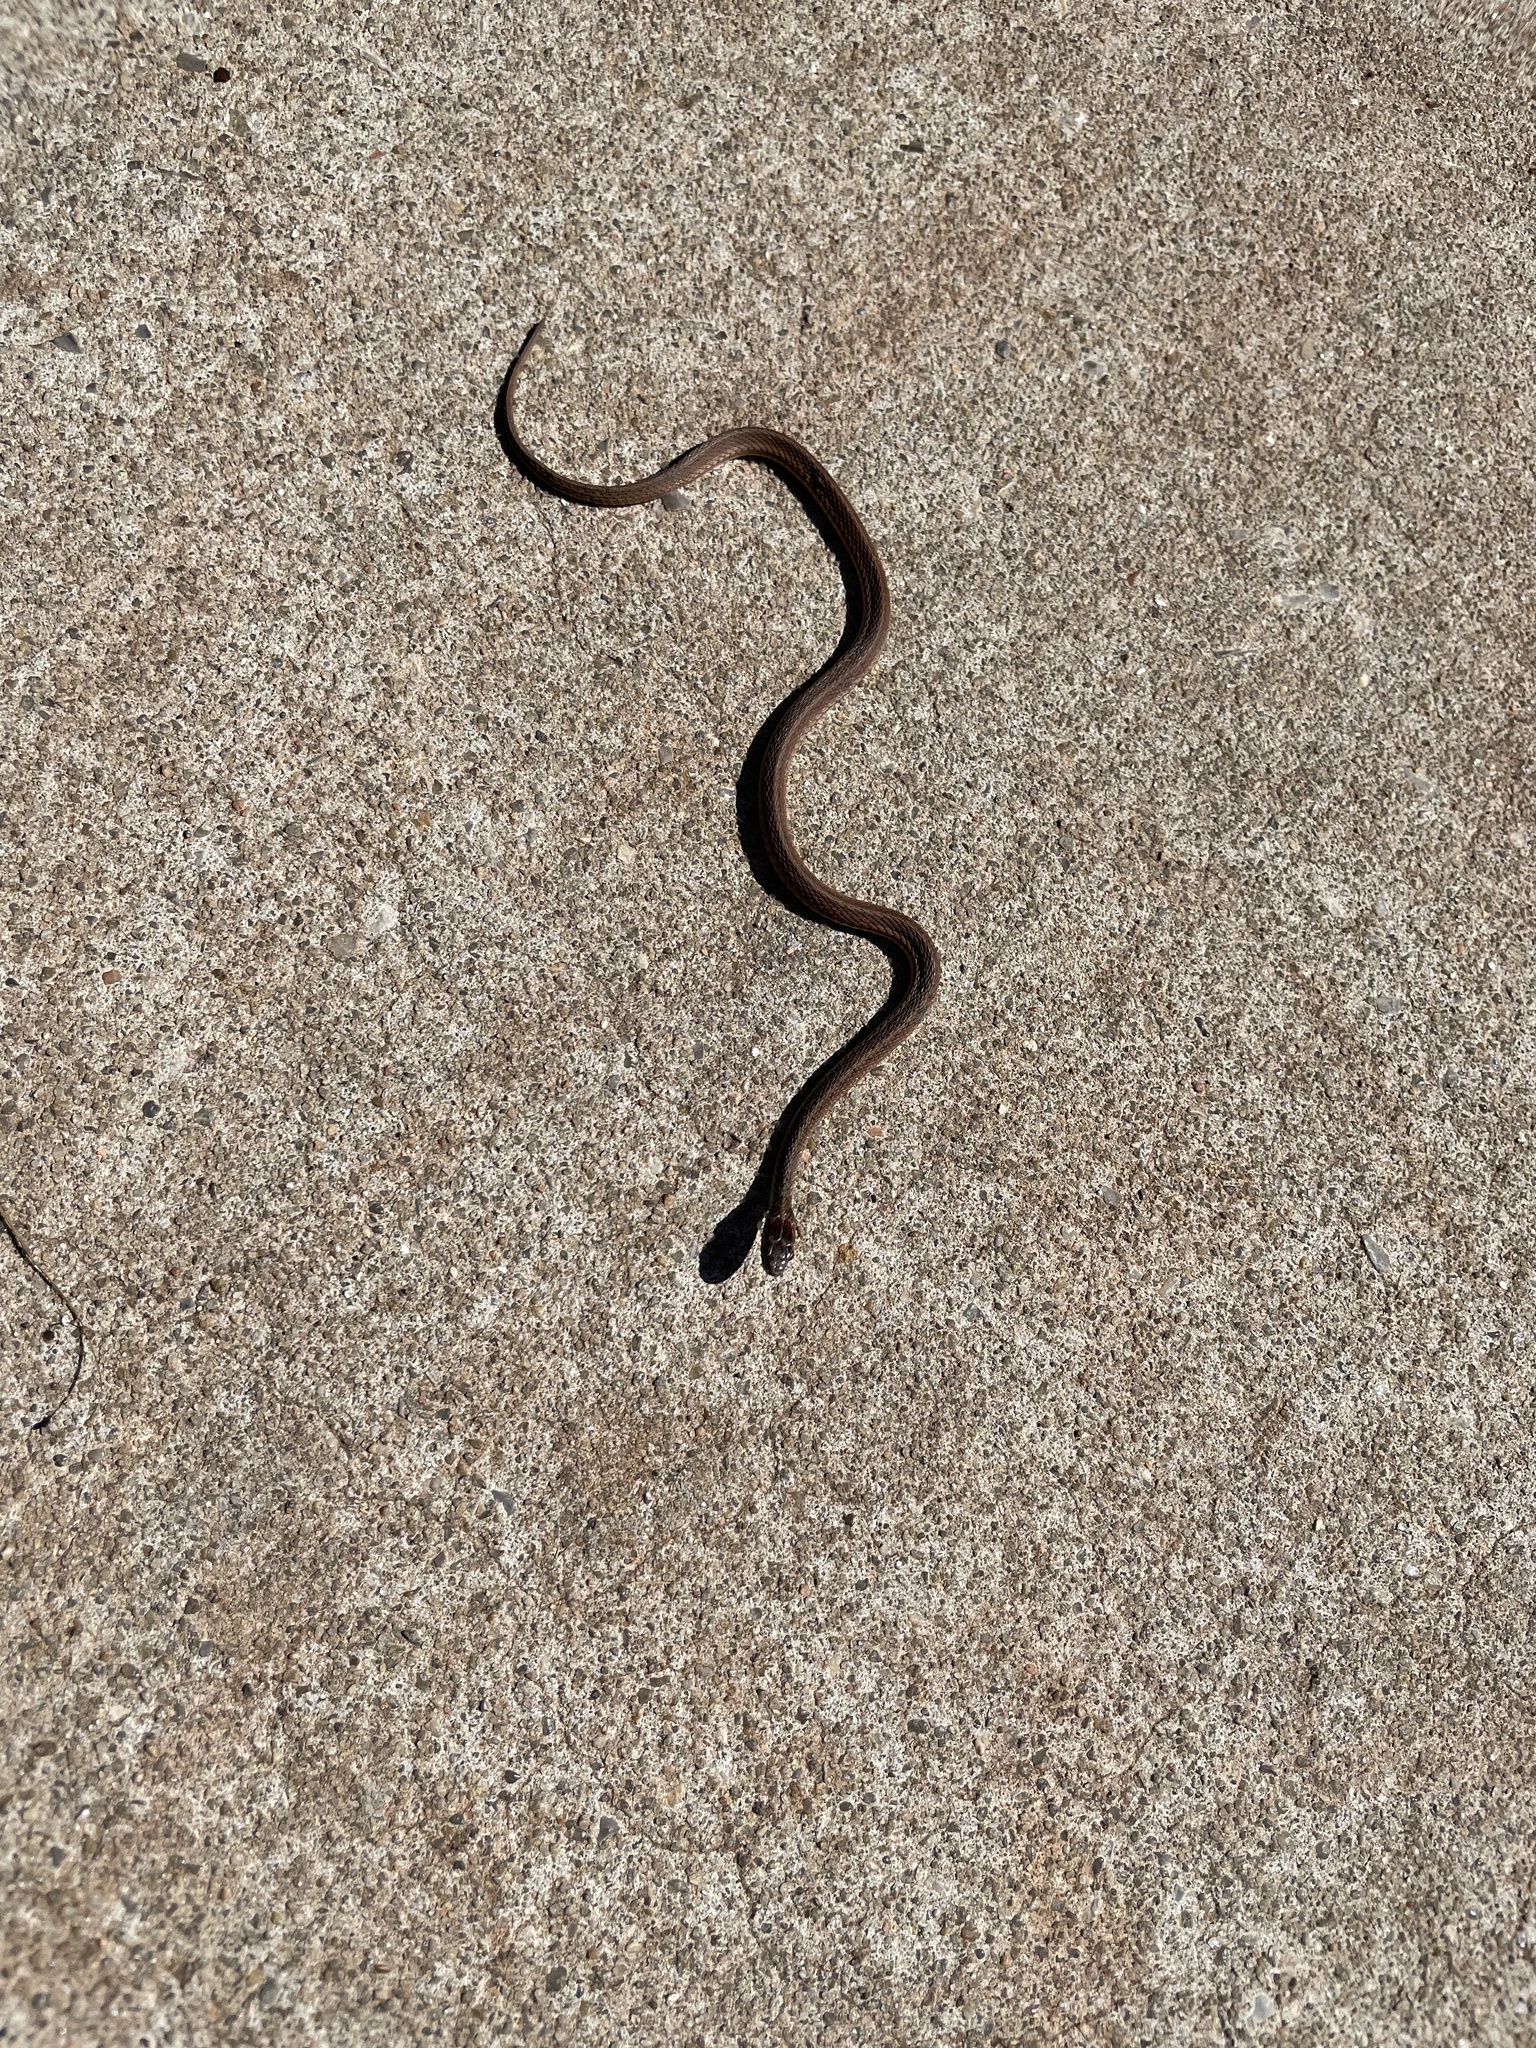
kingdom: Animalia
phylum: Chordata
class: Squamata
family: Colubridae
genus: Storeria
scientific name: Storeria dekayi
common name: (dekay’s) brown snake
